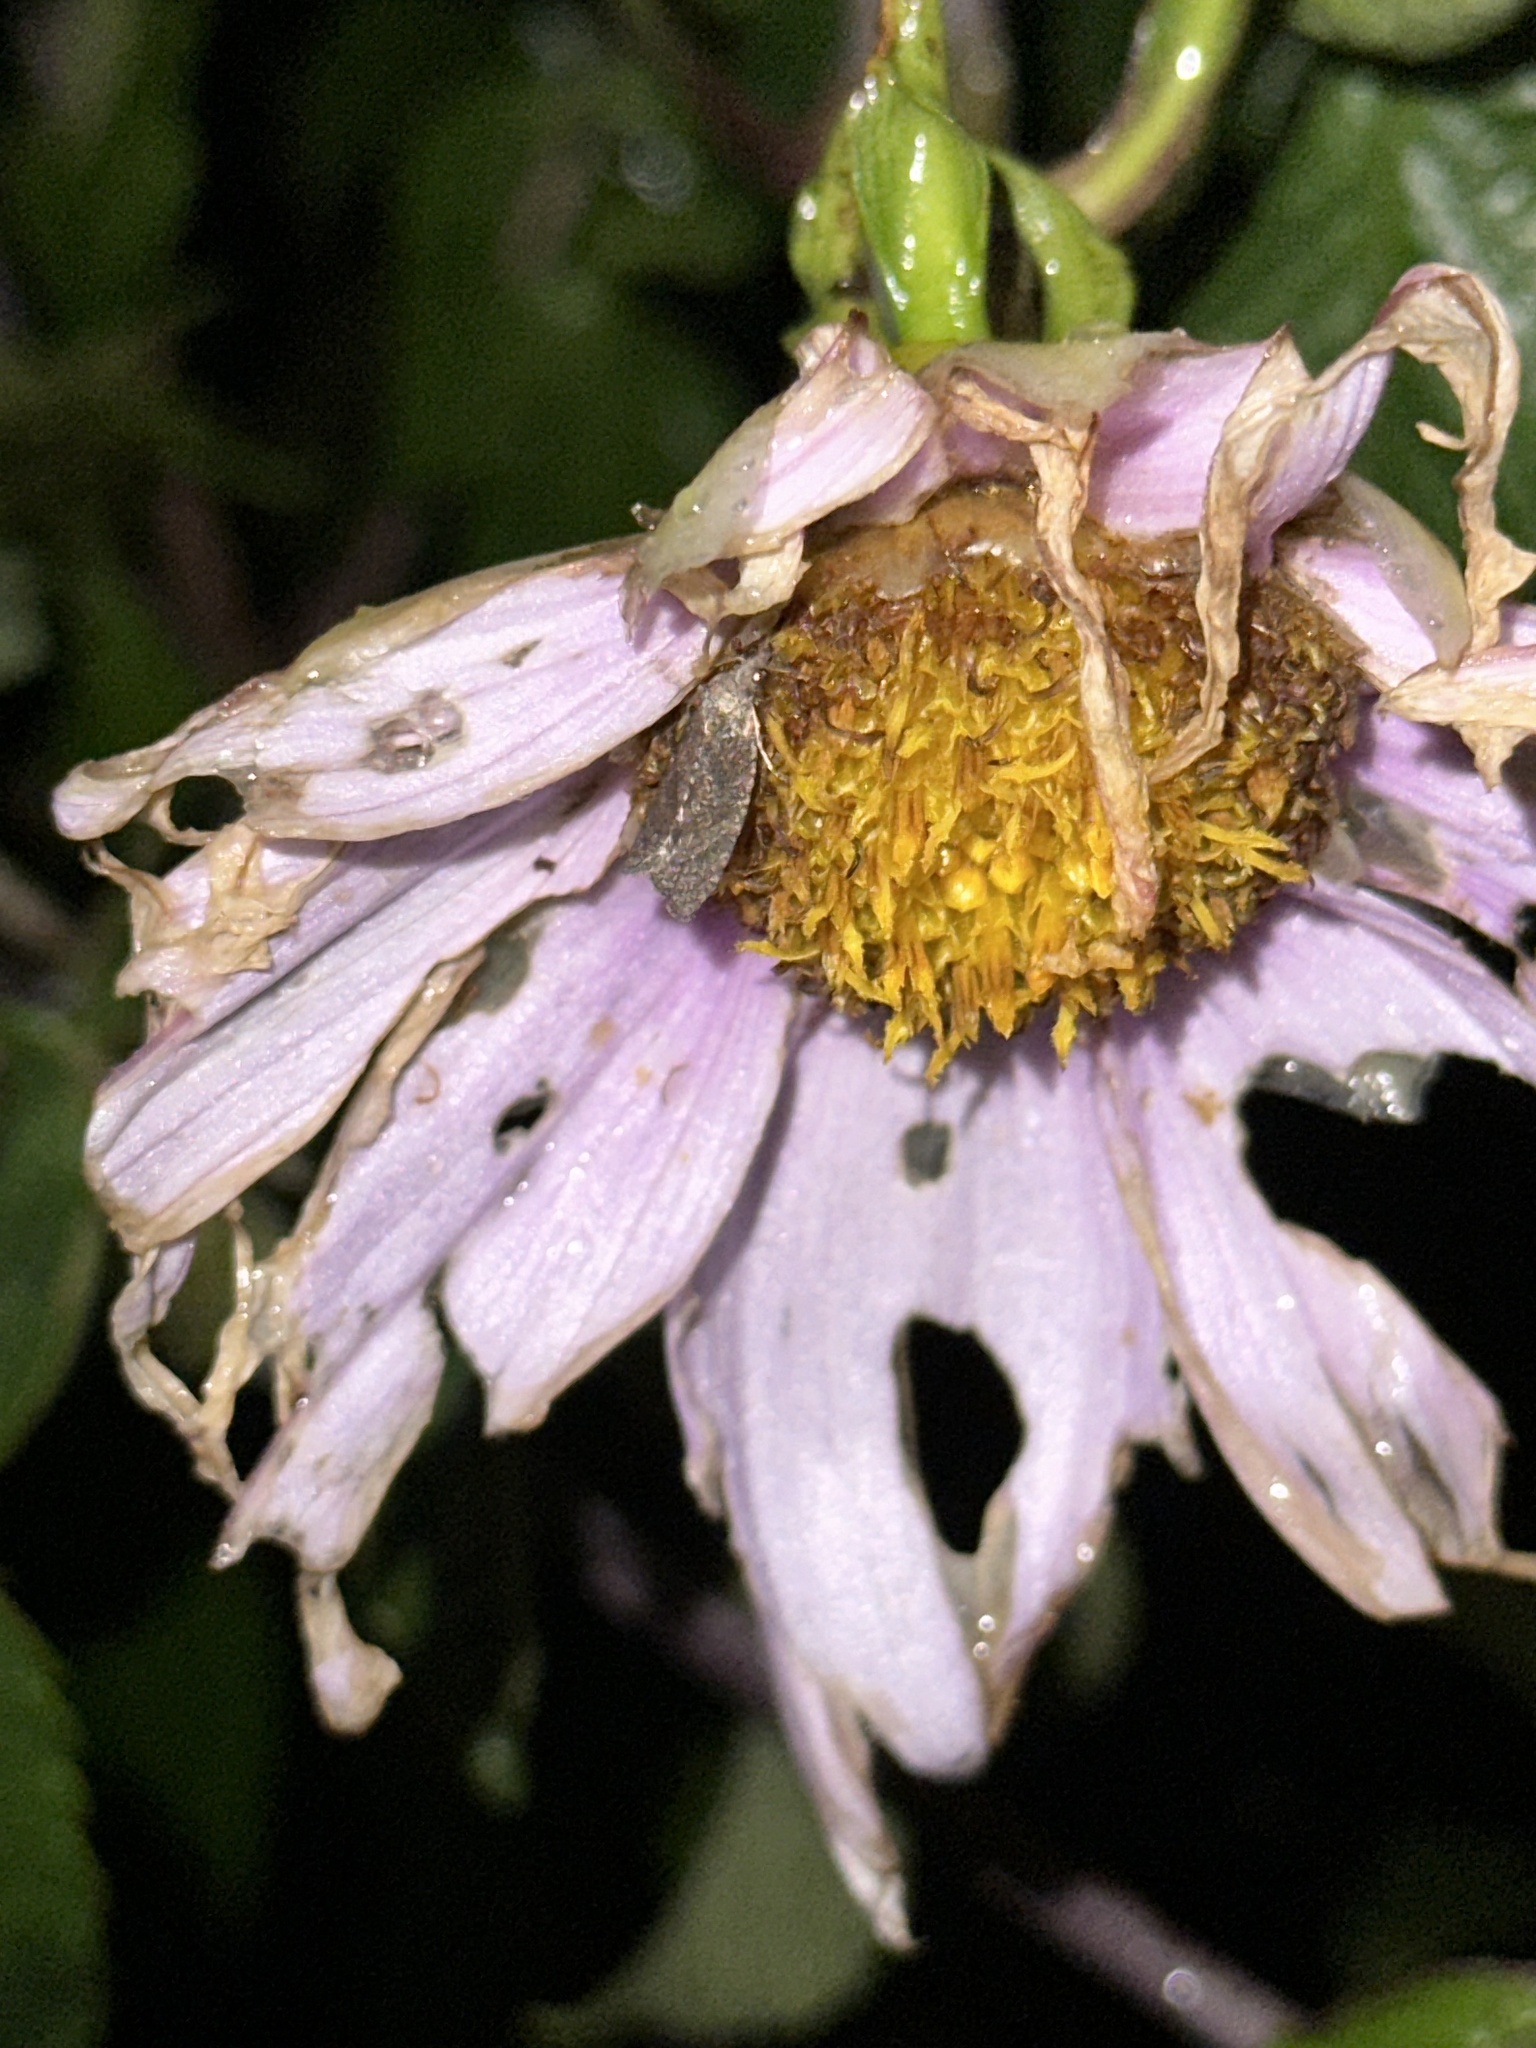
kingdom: Plantae
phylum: Tracheophyta
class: Magnoliopsida
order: Asterales
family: Asteraceae
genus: Dahlia
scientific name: Dahlia imperialis
